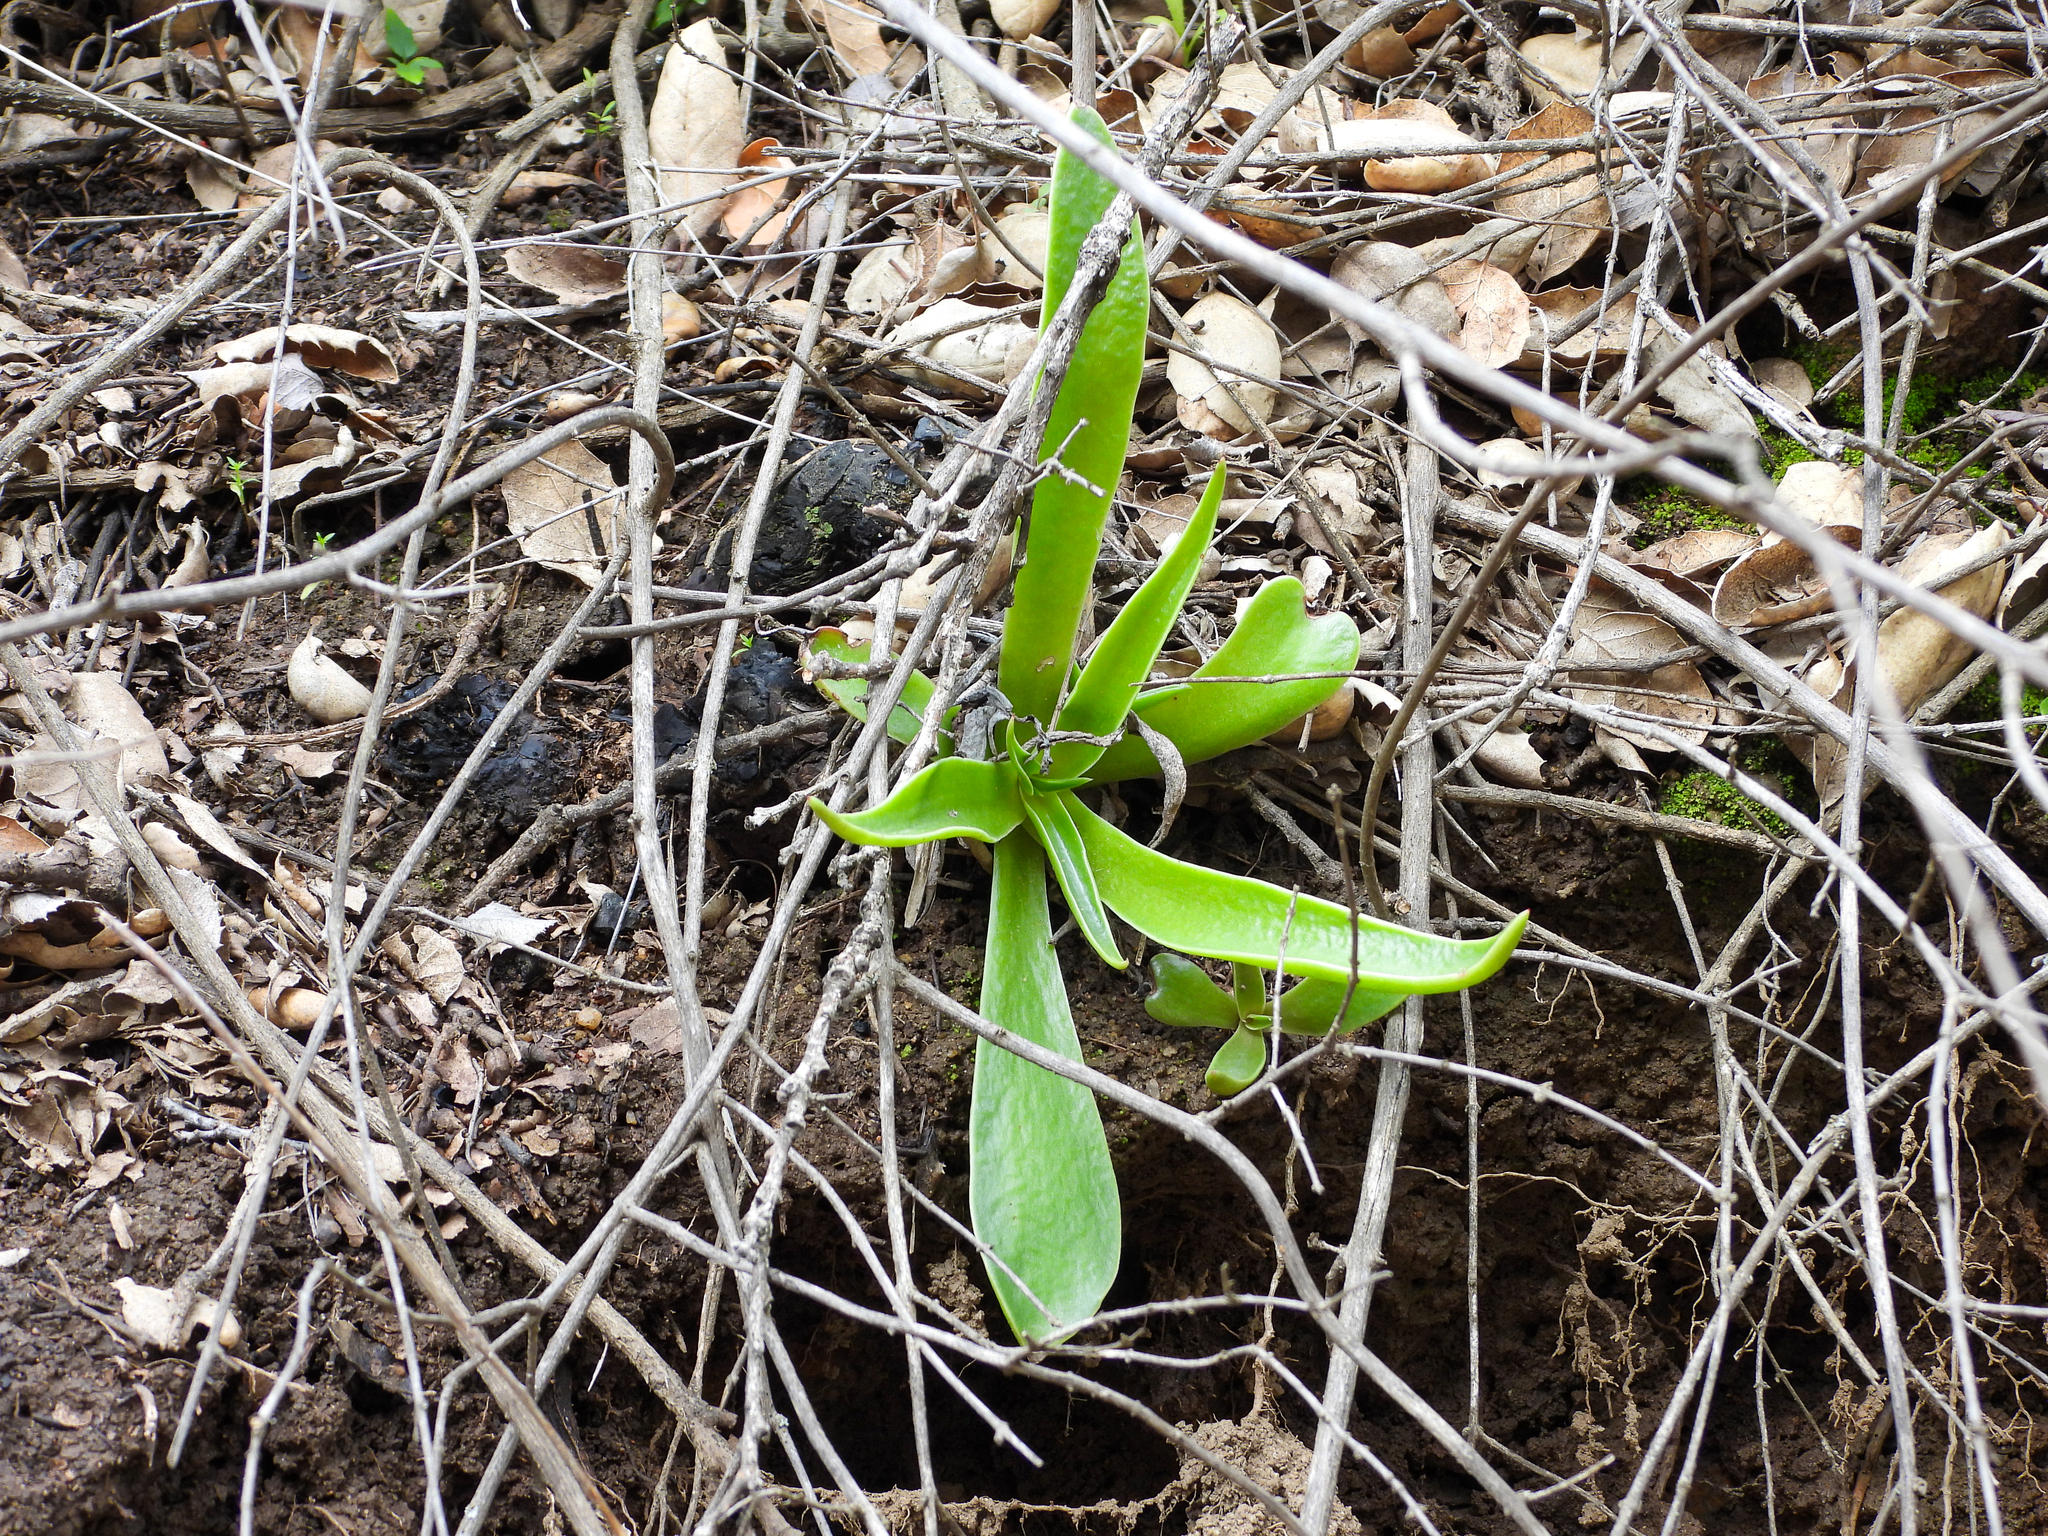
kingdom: Plantae
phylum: Tracheophyta
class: Magnoliopsida
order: Saxifragales
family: Crassulaceae
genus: Dudleya
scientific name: Dudleya lanceolata
